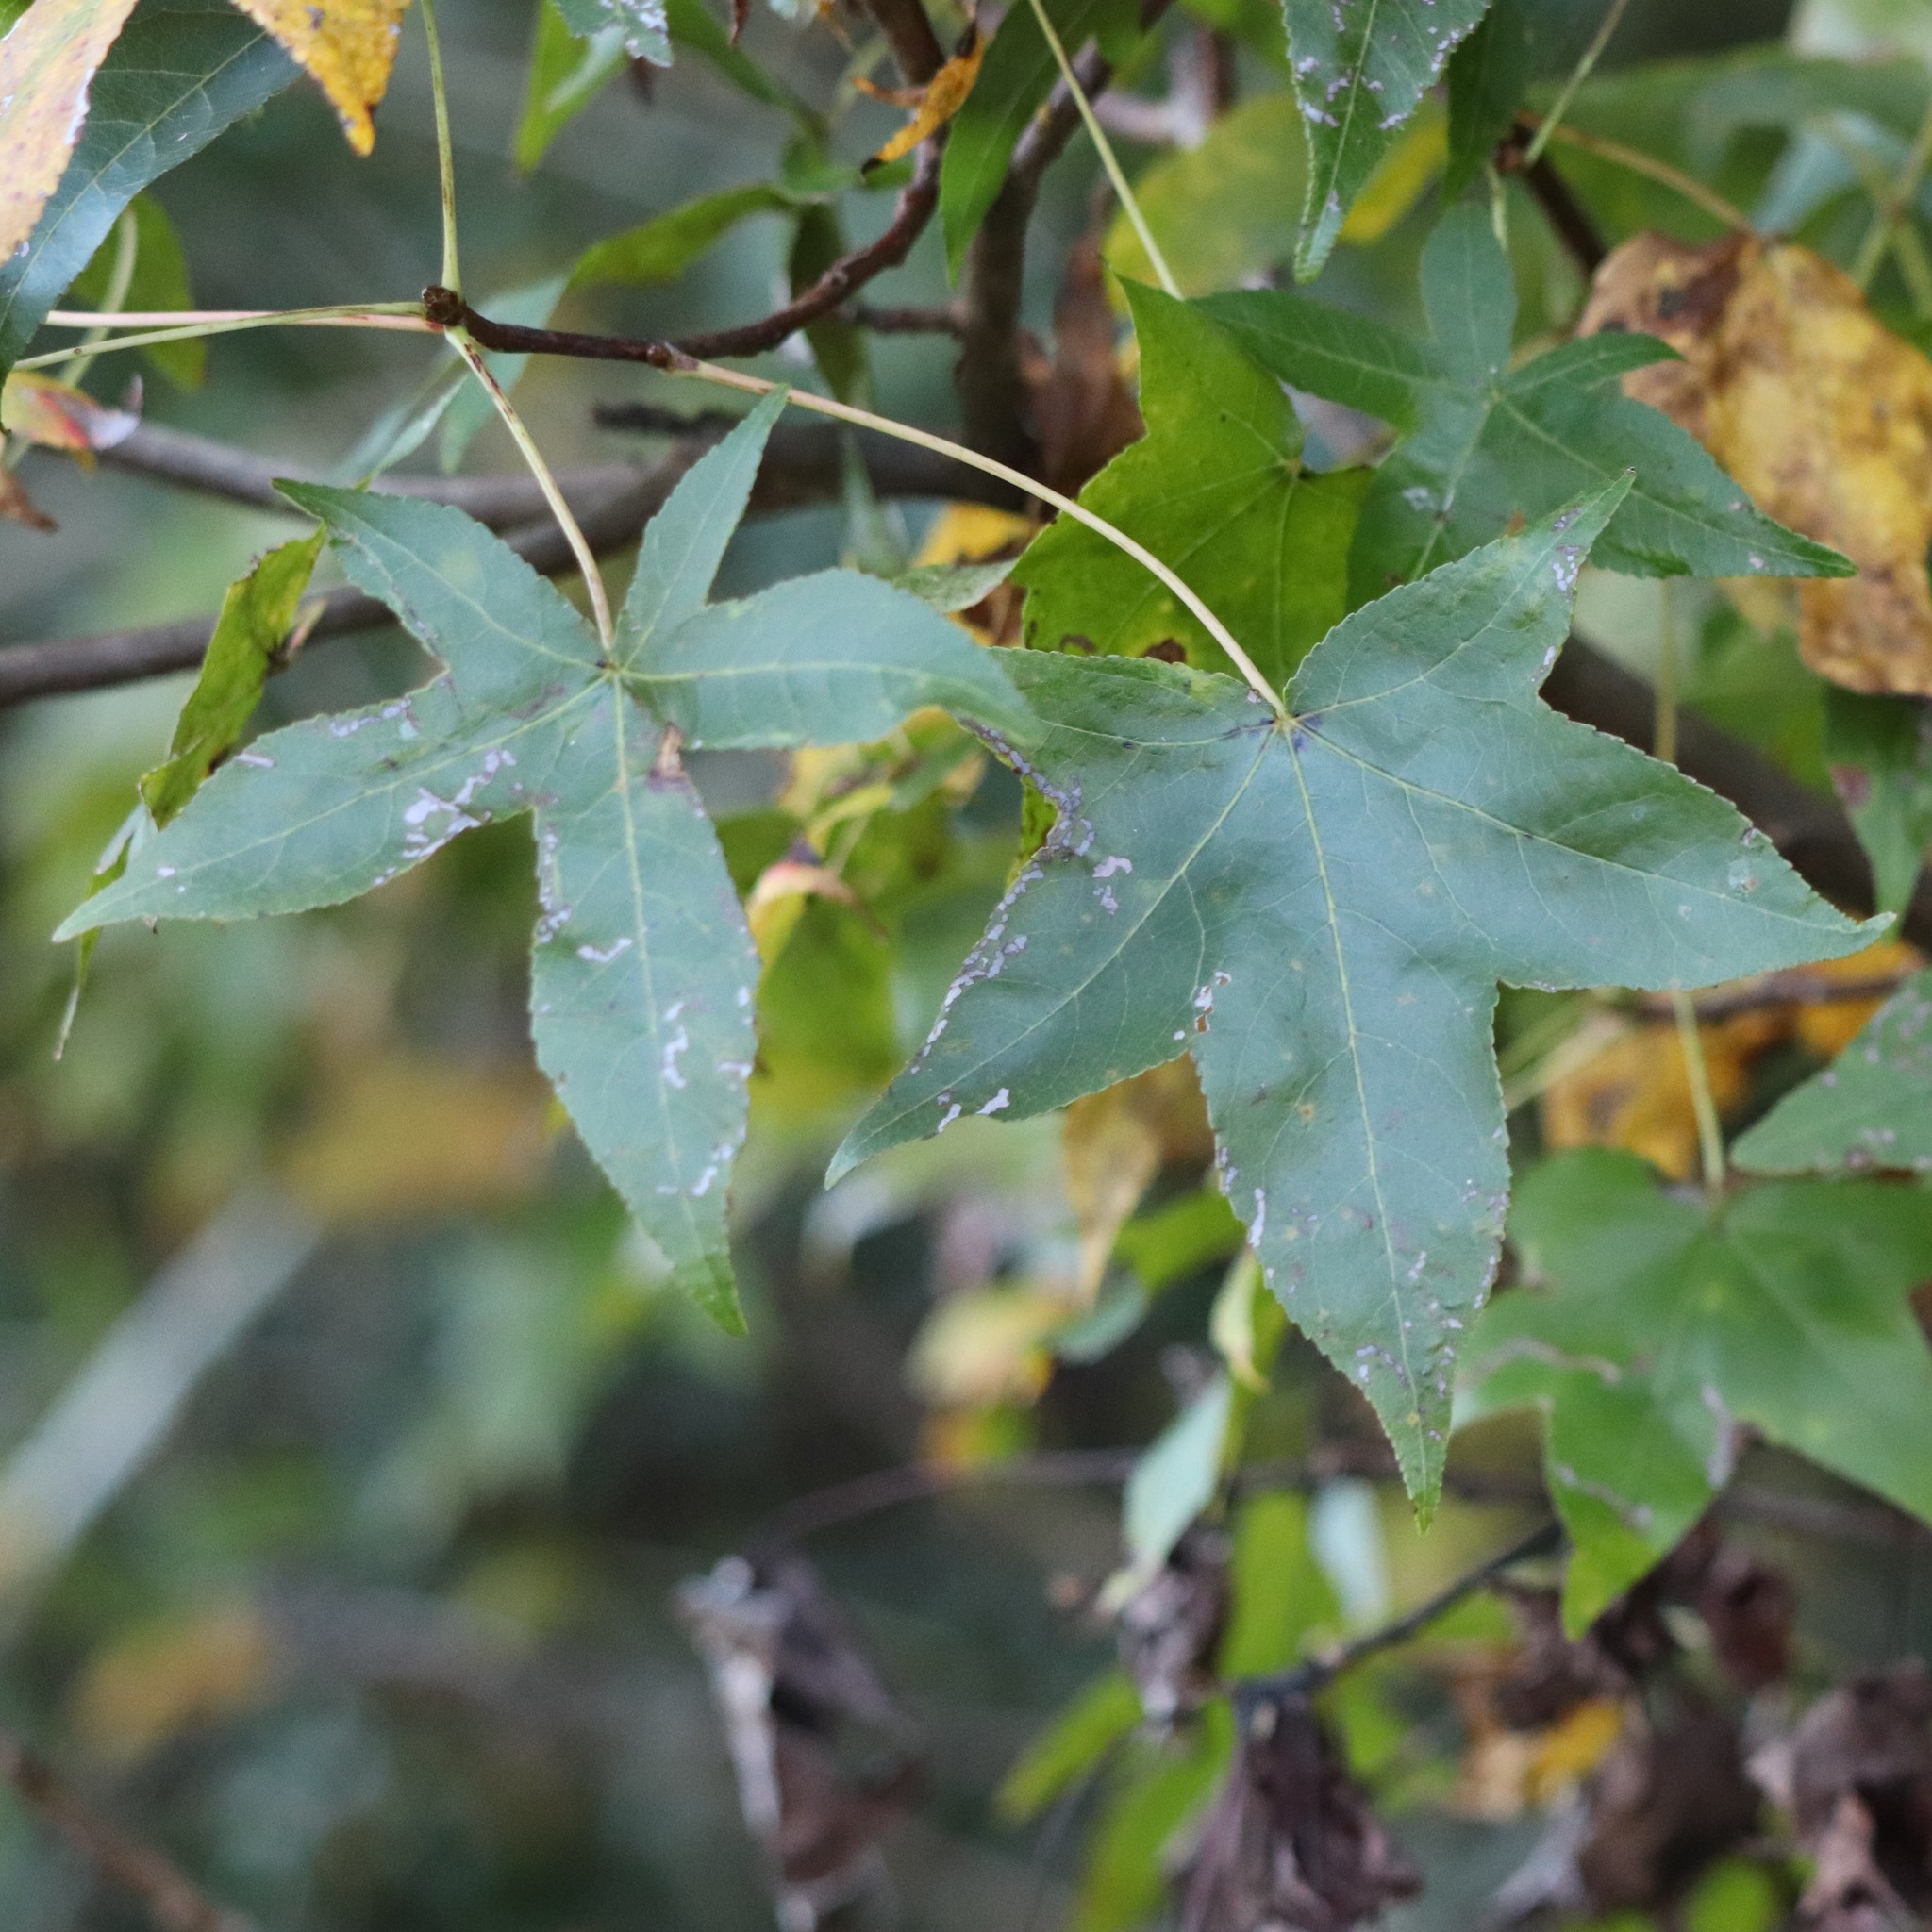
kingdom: Plantae
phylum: Tracheophyta
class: Magnoliopsida
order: Saxifragales
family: Altingiaceae
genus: Liquidambar
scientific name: Liquidambar styraciflua
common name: Sweet gum
